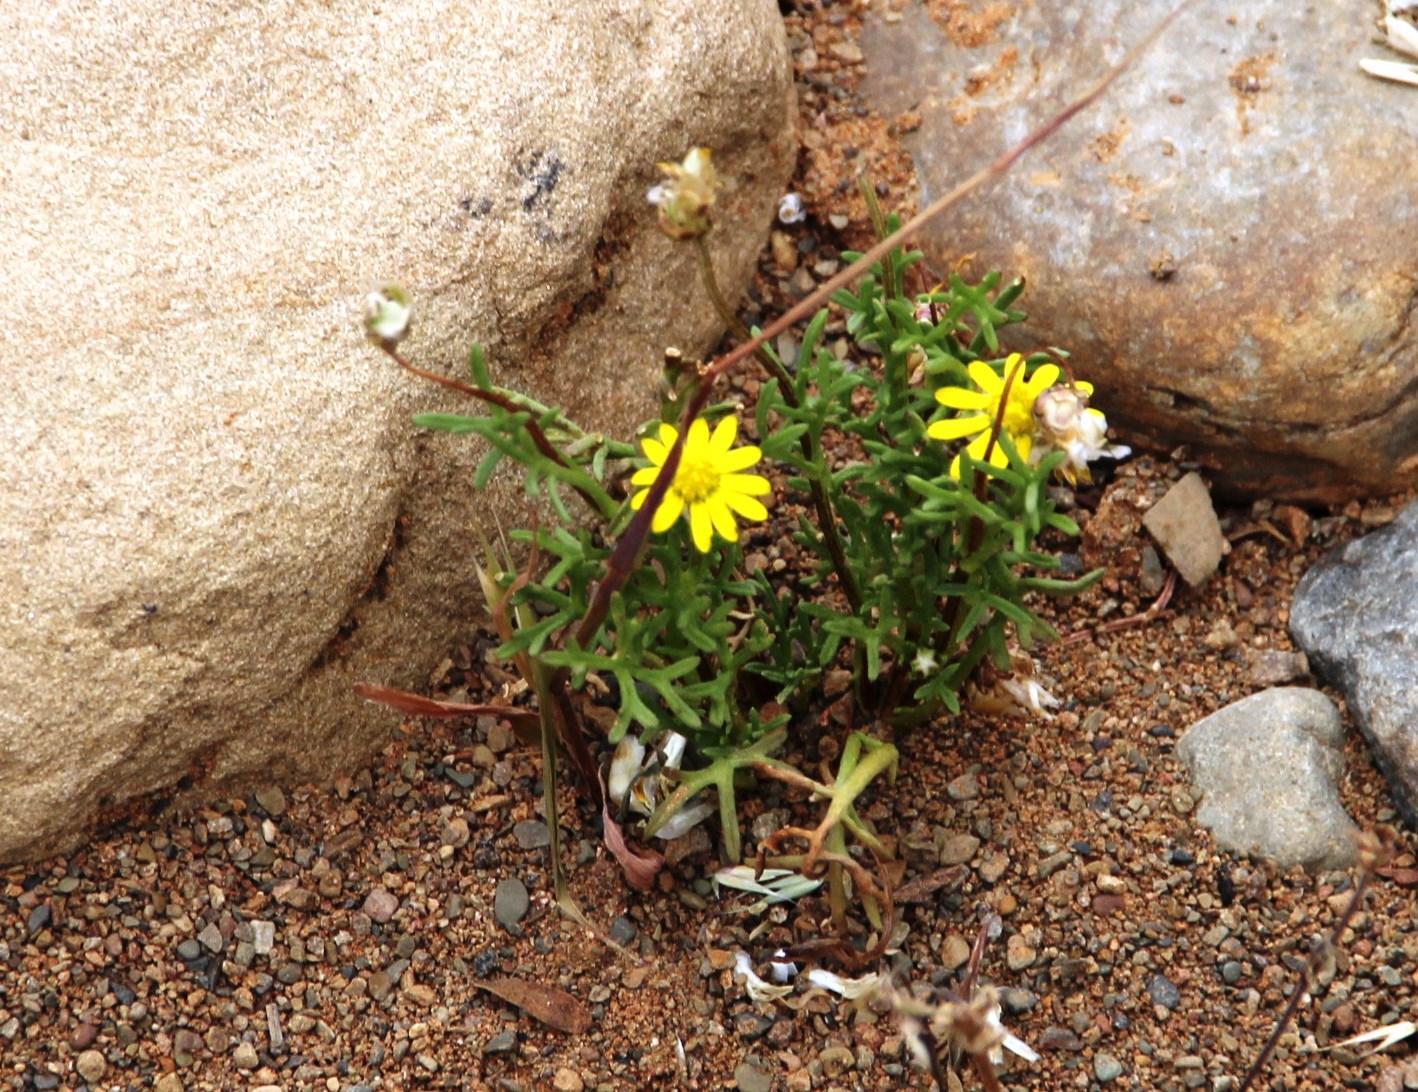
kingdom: Plantae
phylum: Tracheophyta
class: Magnoliopsida
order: Asterales
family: Asteraceae
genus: Ursinia
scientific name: Ursinia nana
